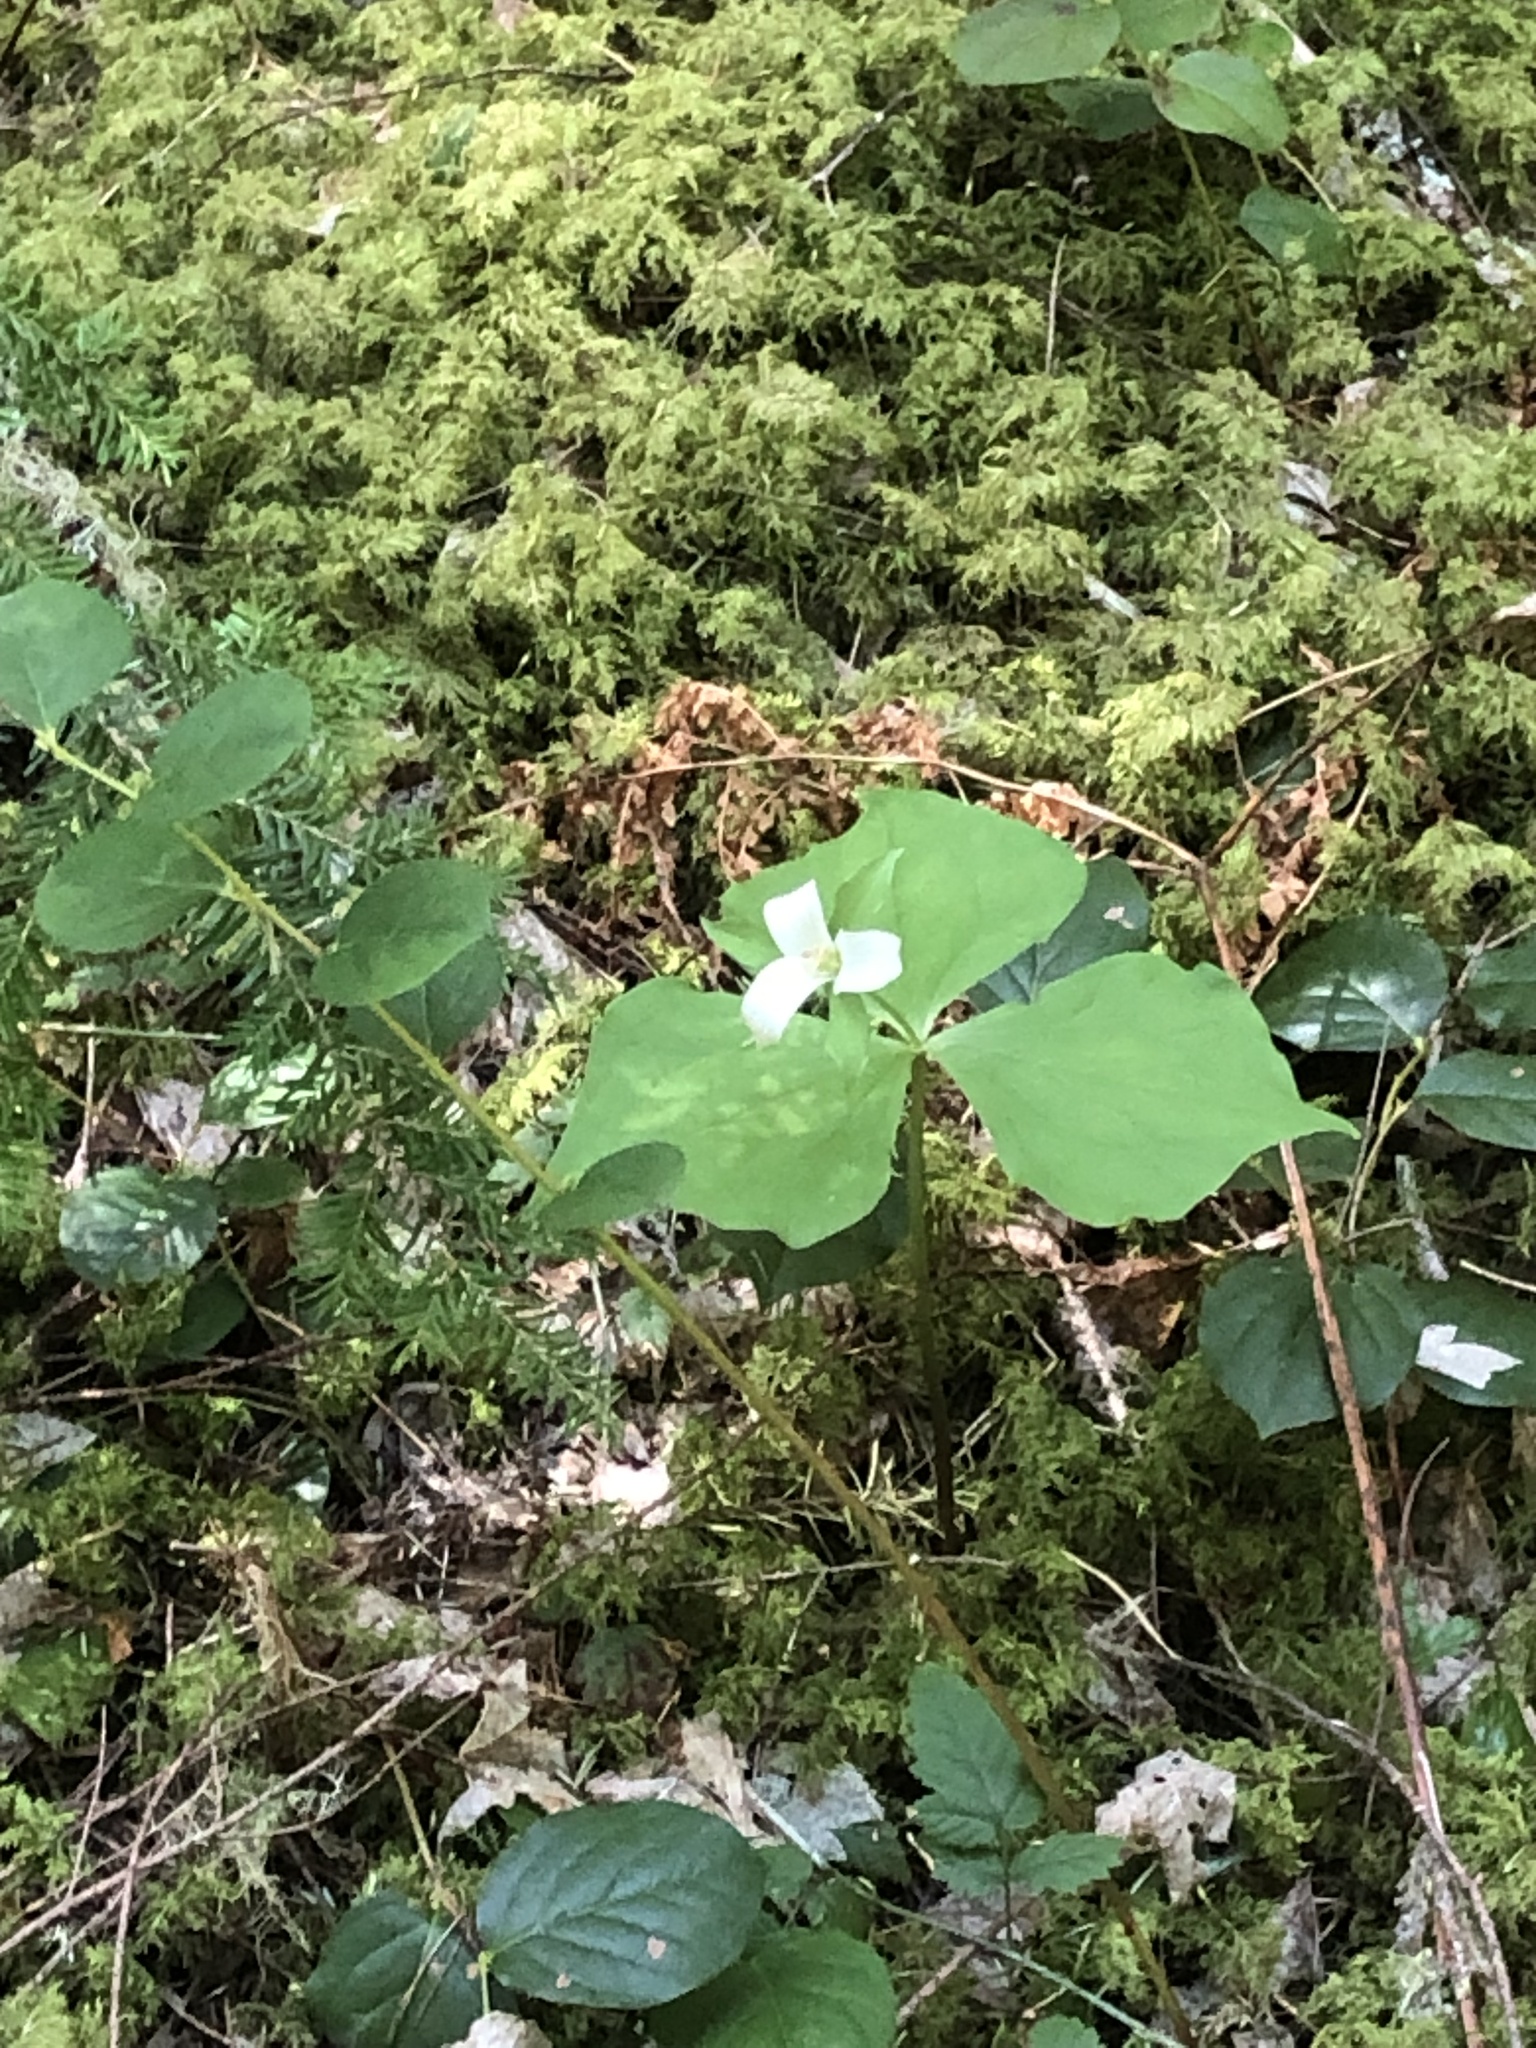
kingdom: Plantae
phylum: Tracheophyta
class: Liliopsida
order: Liliales
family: Melanthiaceae
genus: Trillium
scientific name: Trillium ovatum
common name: Pacific trillium
